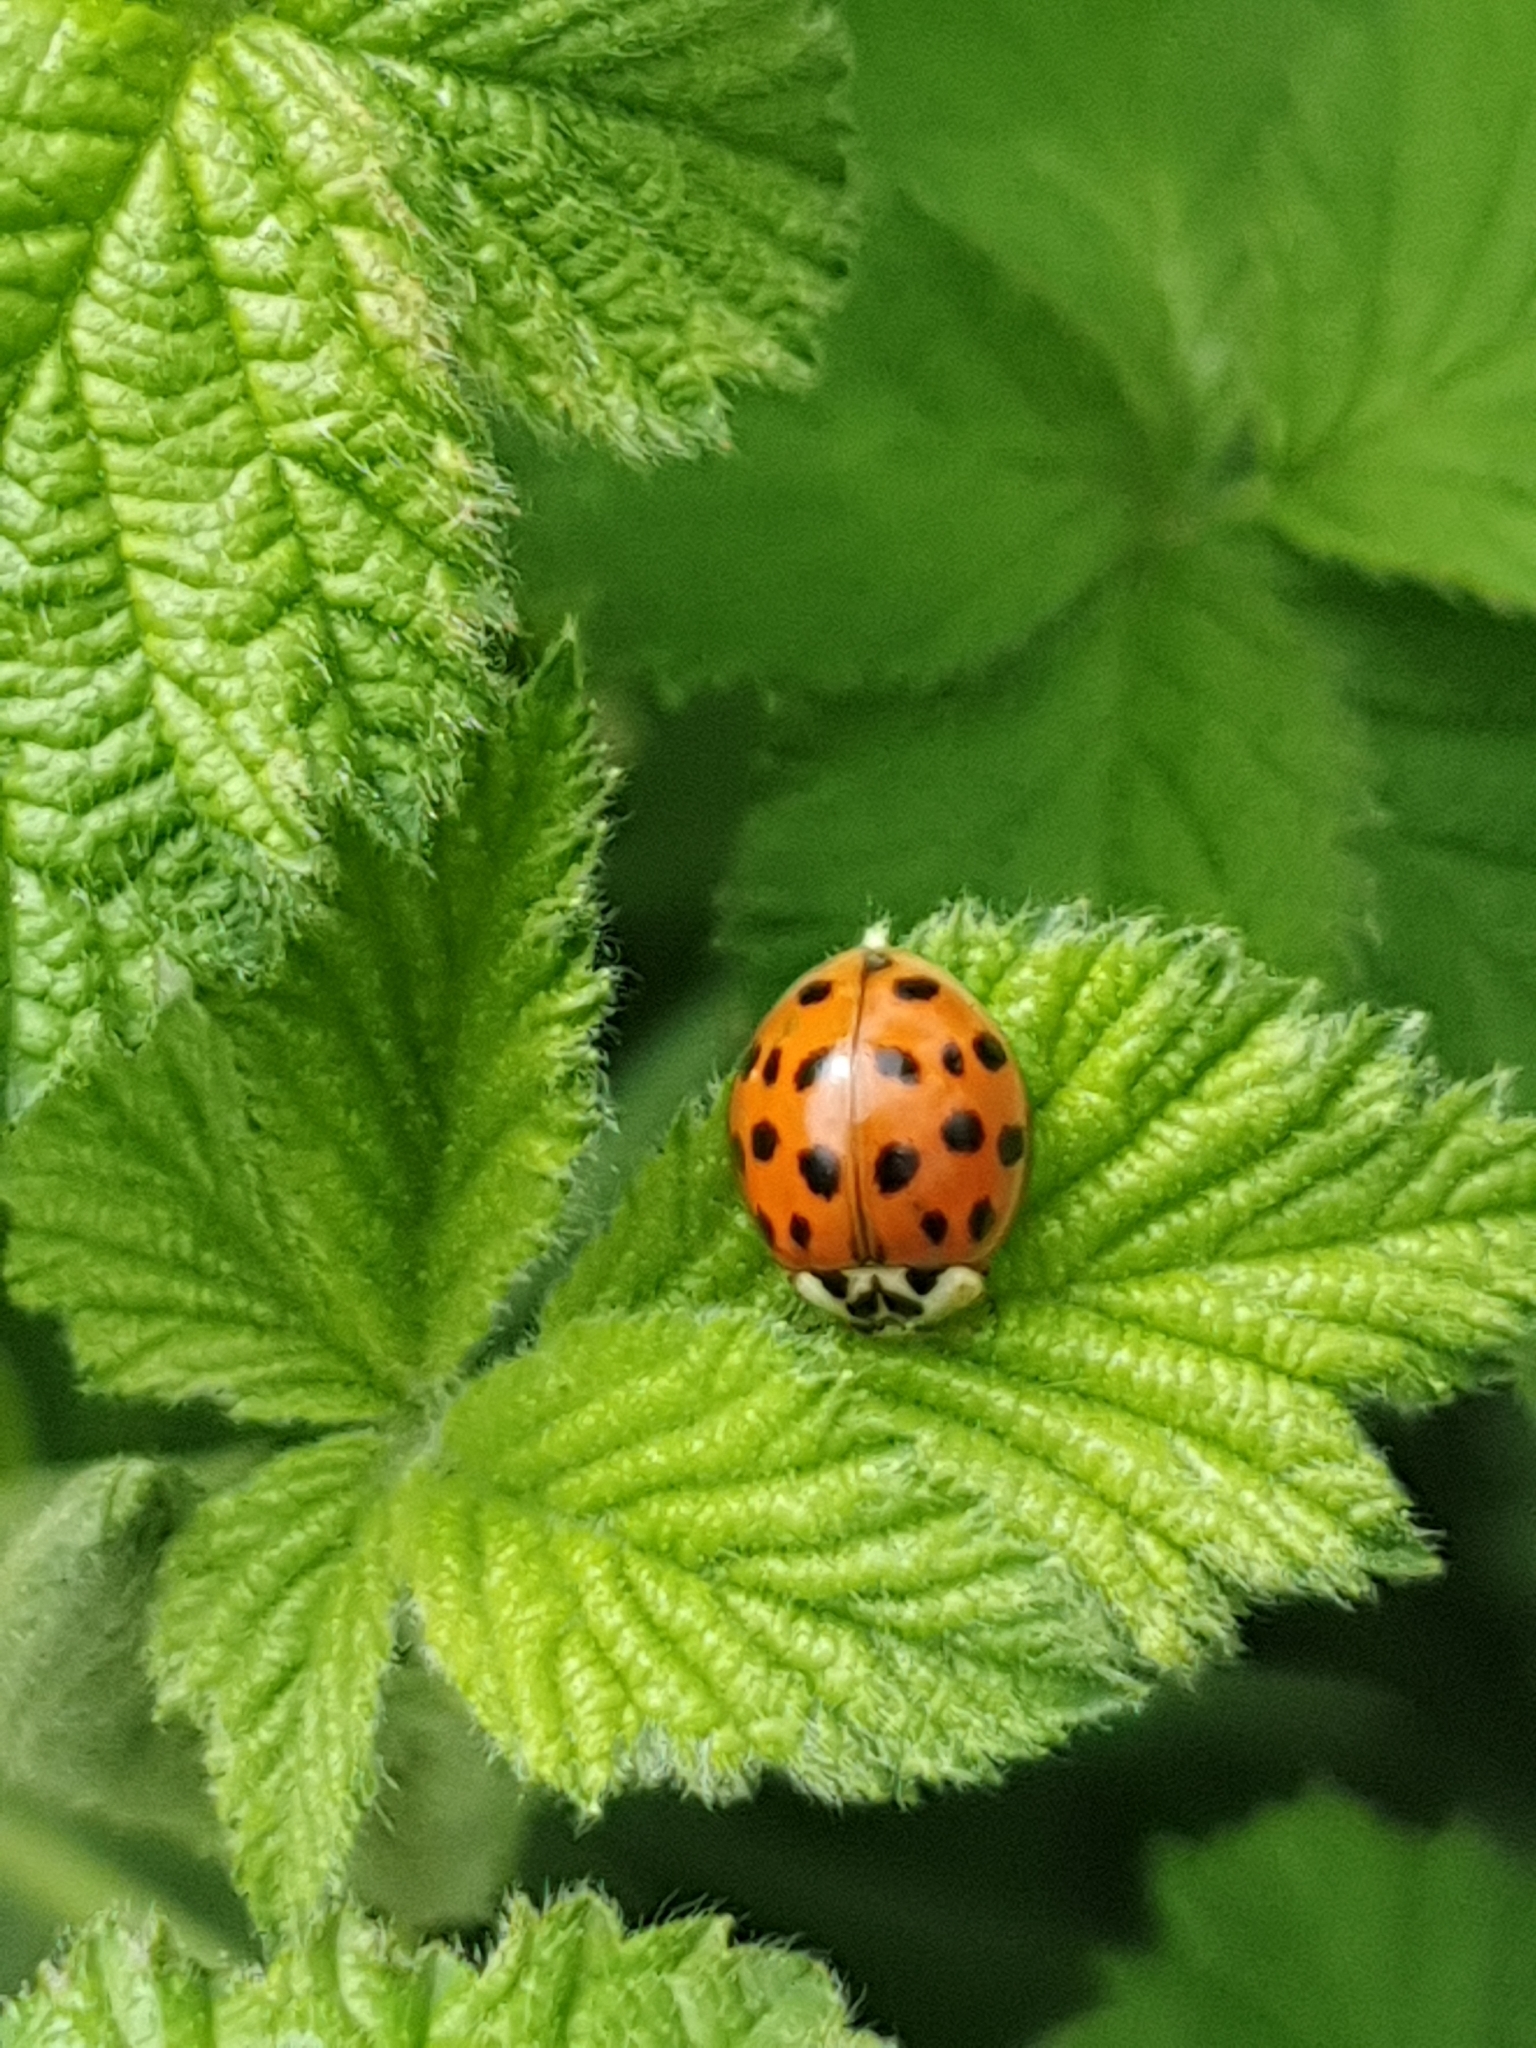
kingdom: Animalia
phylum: Arthropoda
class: Insecta
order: Coleoptera
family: Coccinellidae
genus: Harmonia
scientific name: Harmonia axyridis
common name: Harlequin ladybird
